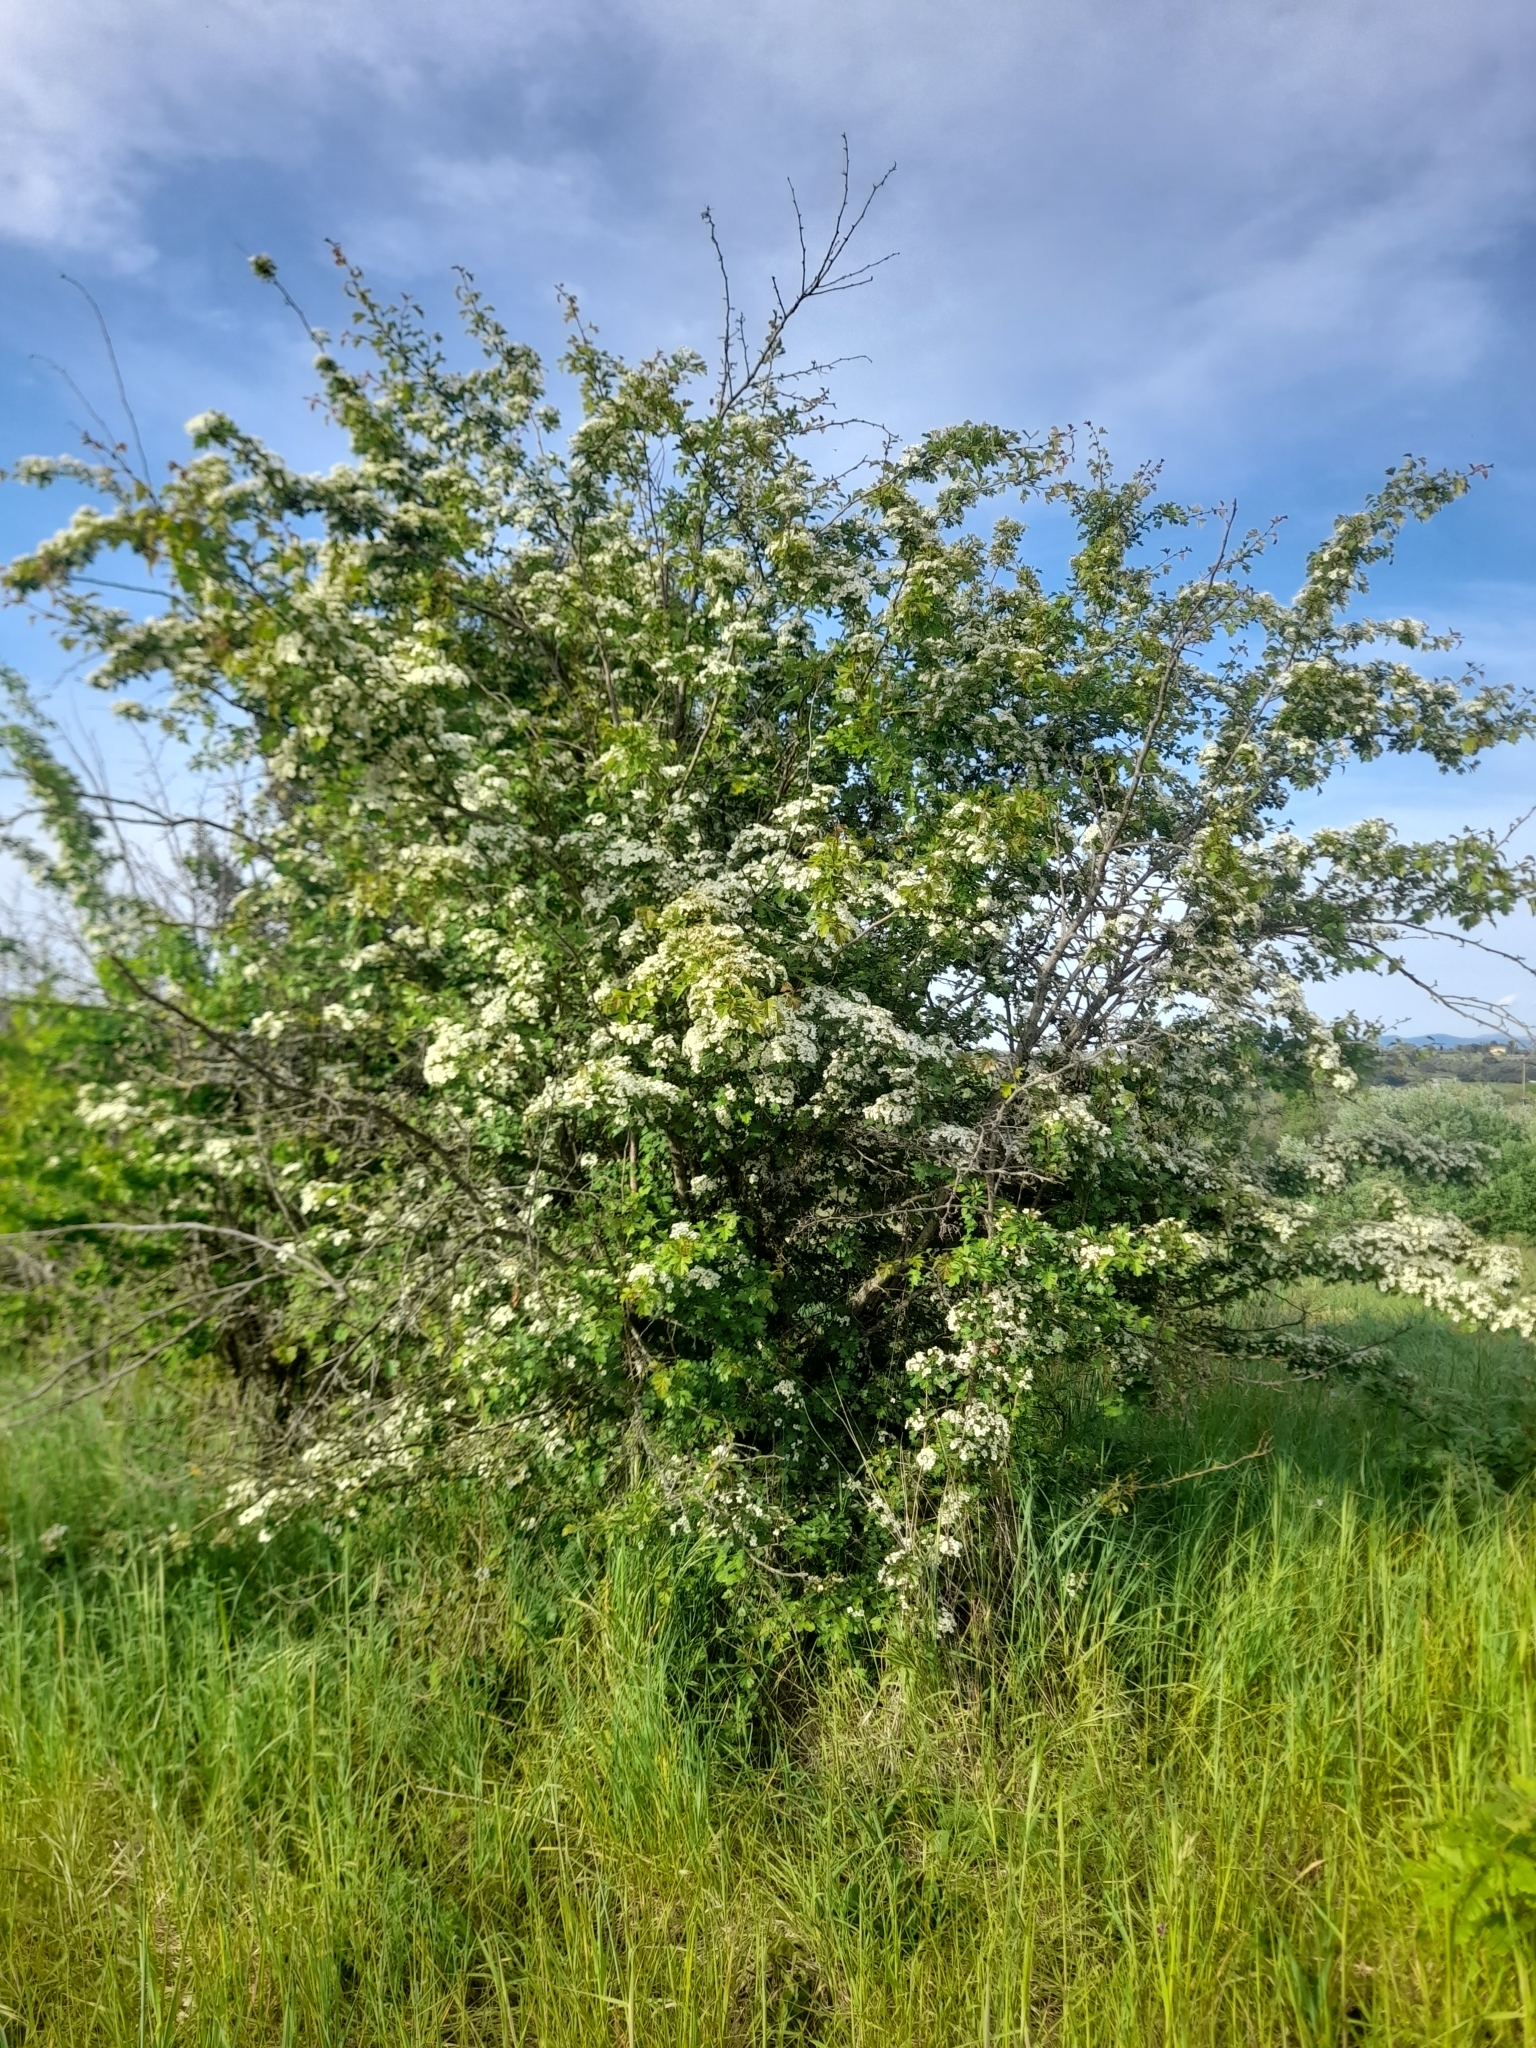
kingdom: Plantae
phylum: Tracheophyta
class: Magnoliopsida
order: Rosales
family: Rosaceae
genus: Crataegus
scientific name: Crataegus monogyna
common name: Hawthorn
